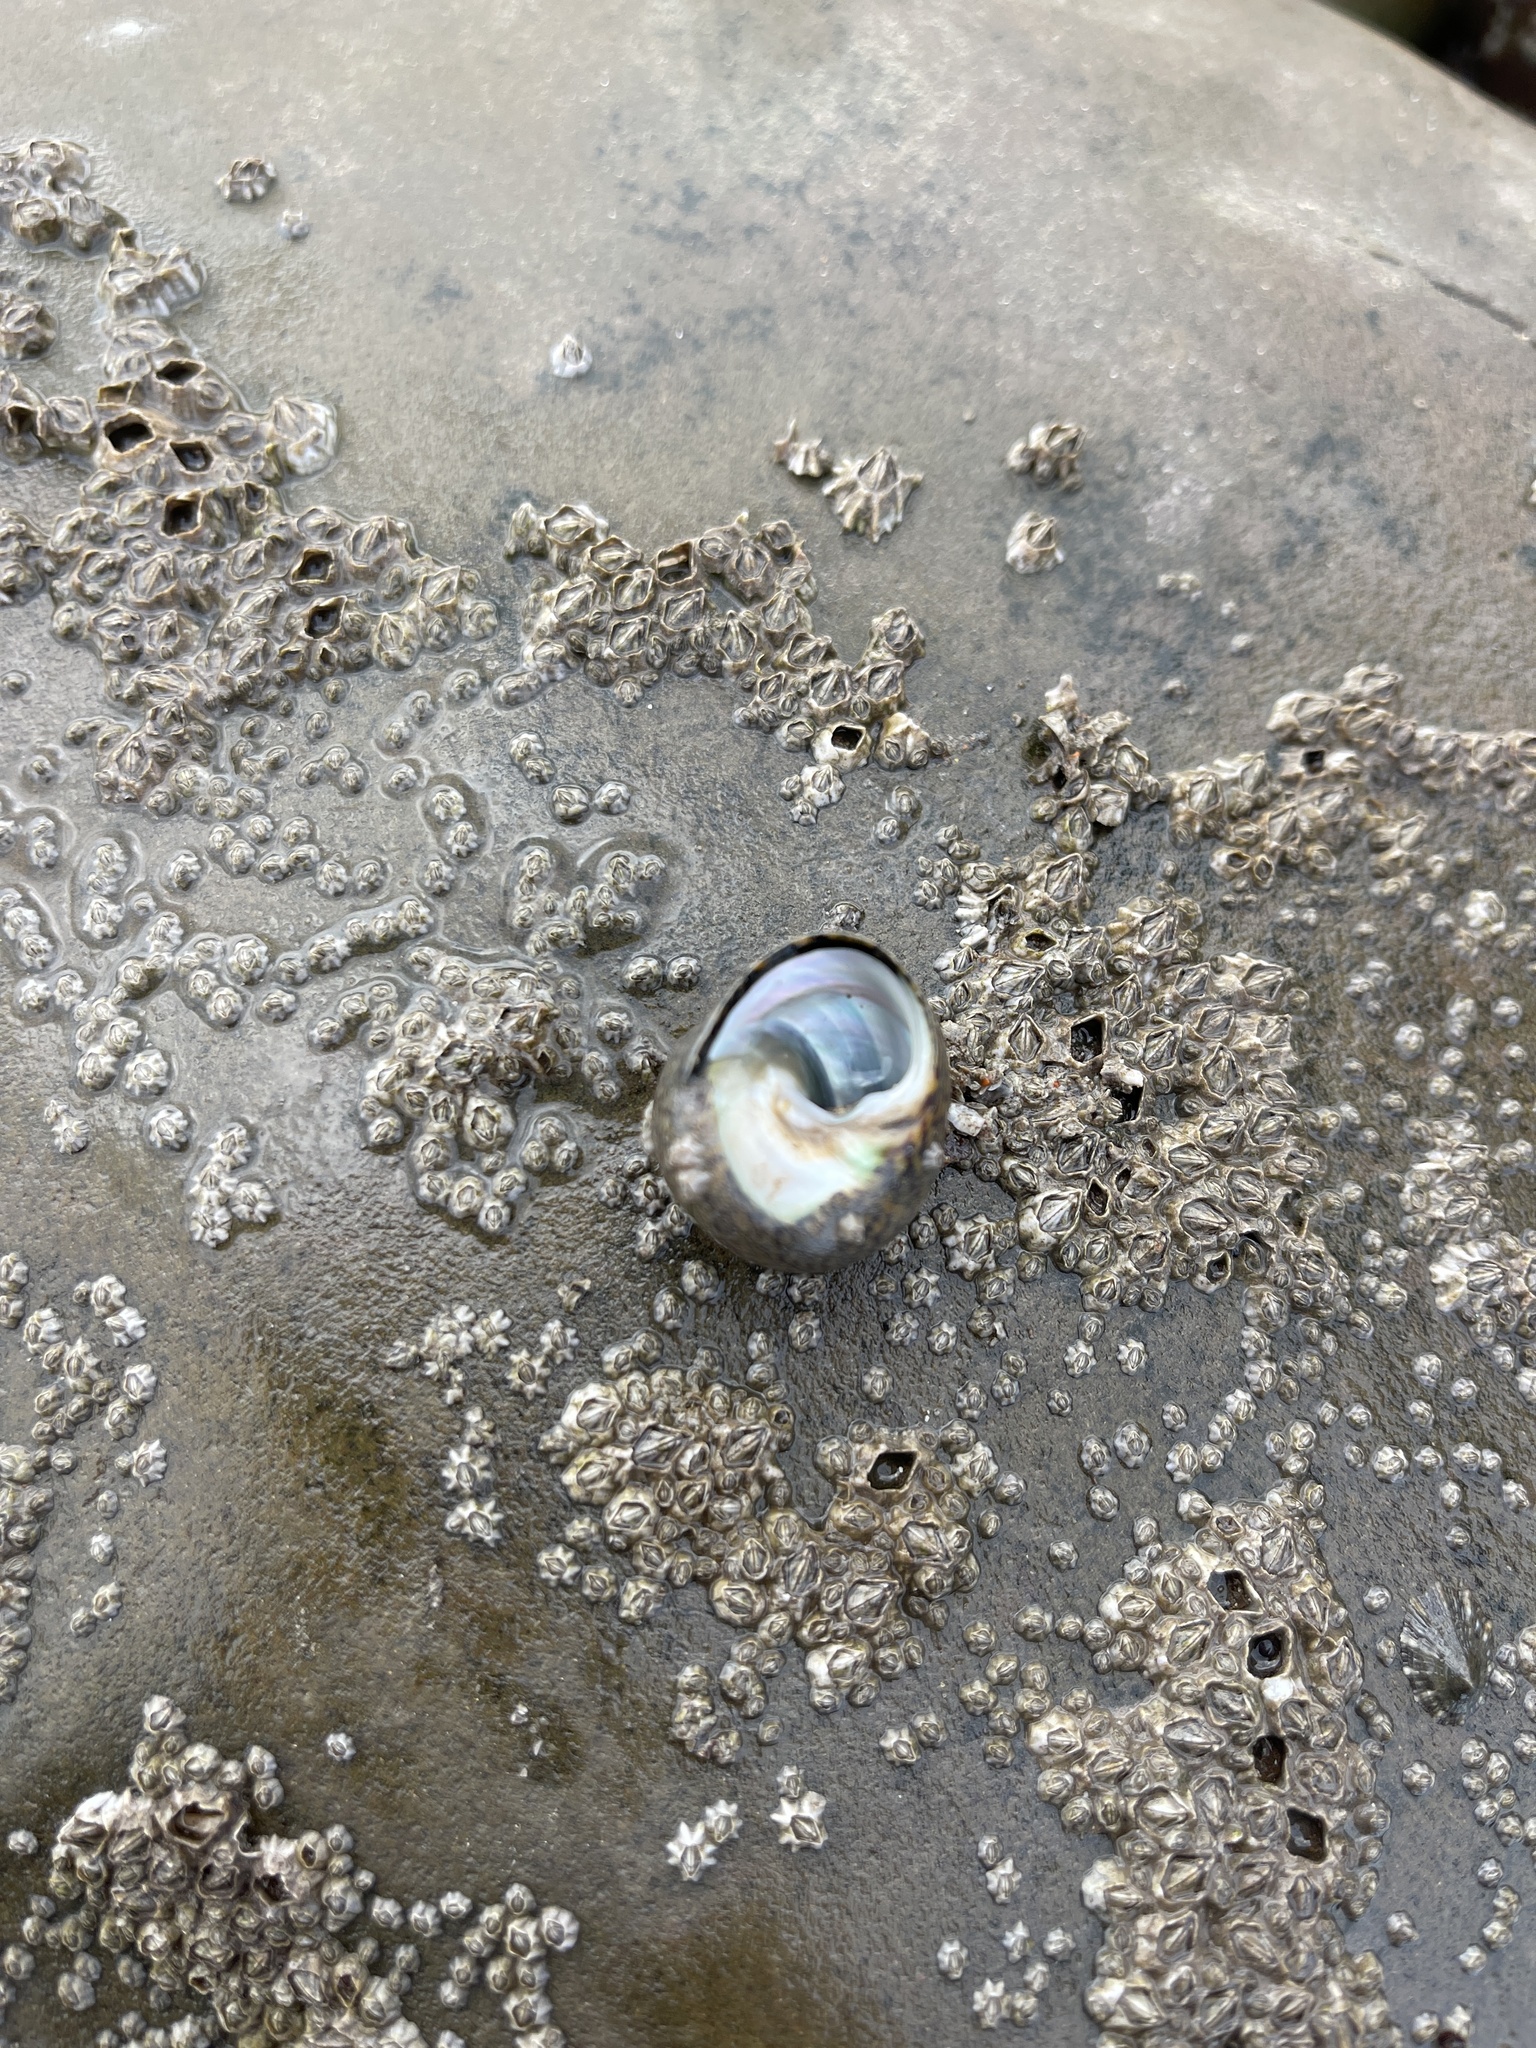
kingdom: Animalia
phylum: Mollusca
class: Gastropoda
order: Trochida
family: Trochidae
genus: Phorcus
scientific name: Phorcus lineatus
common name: Toothed top shell
